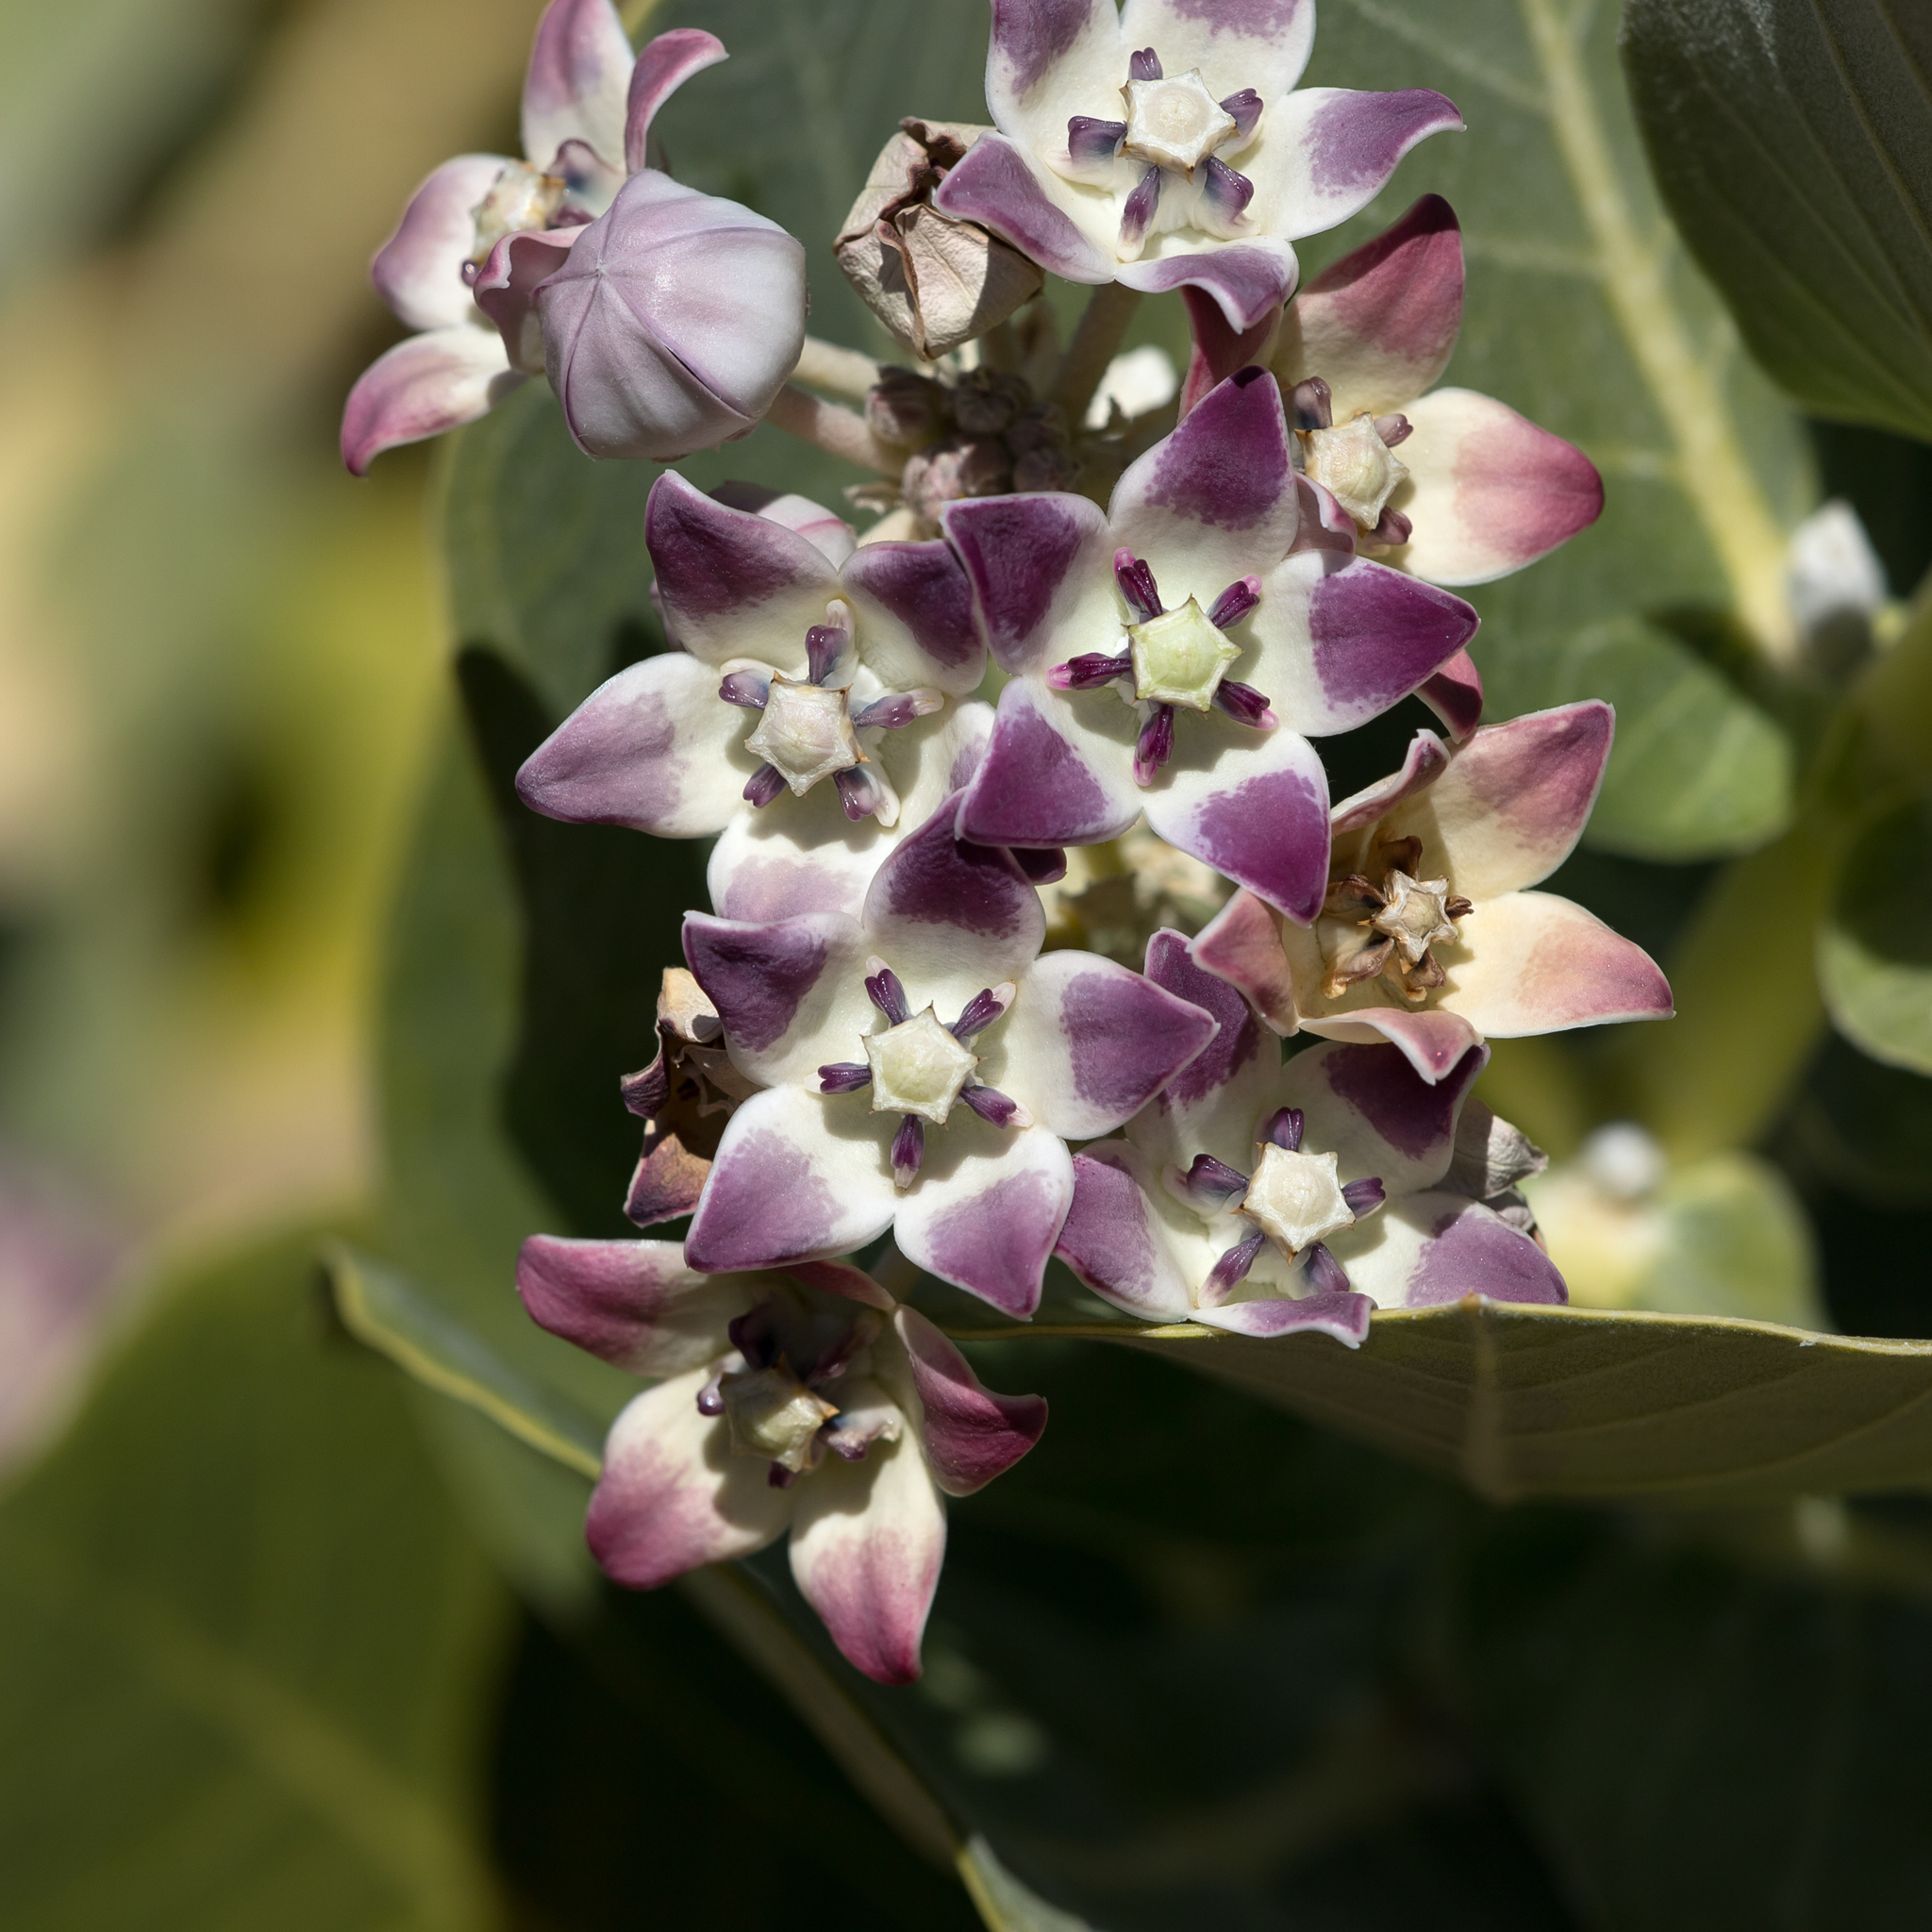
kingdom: Plantae
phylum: Tracheophyta
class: Magnoliopsida
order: Gentianales
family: Apocynaceae
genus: Calotropis
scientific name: Calotropis procera
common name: Roostertree
